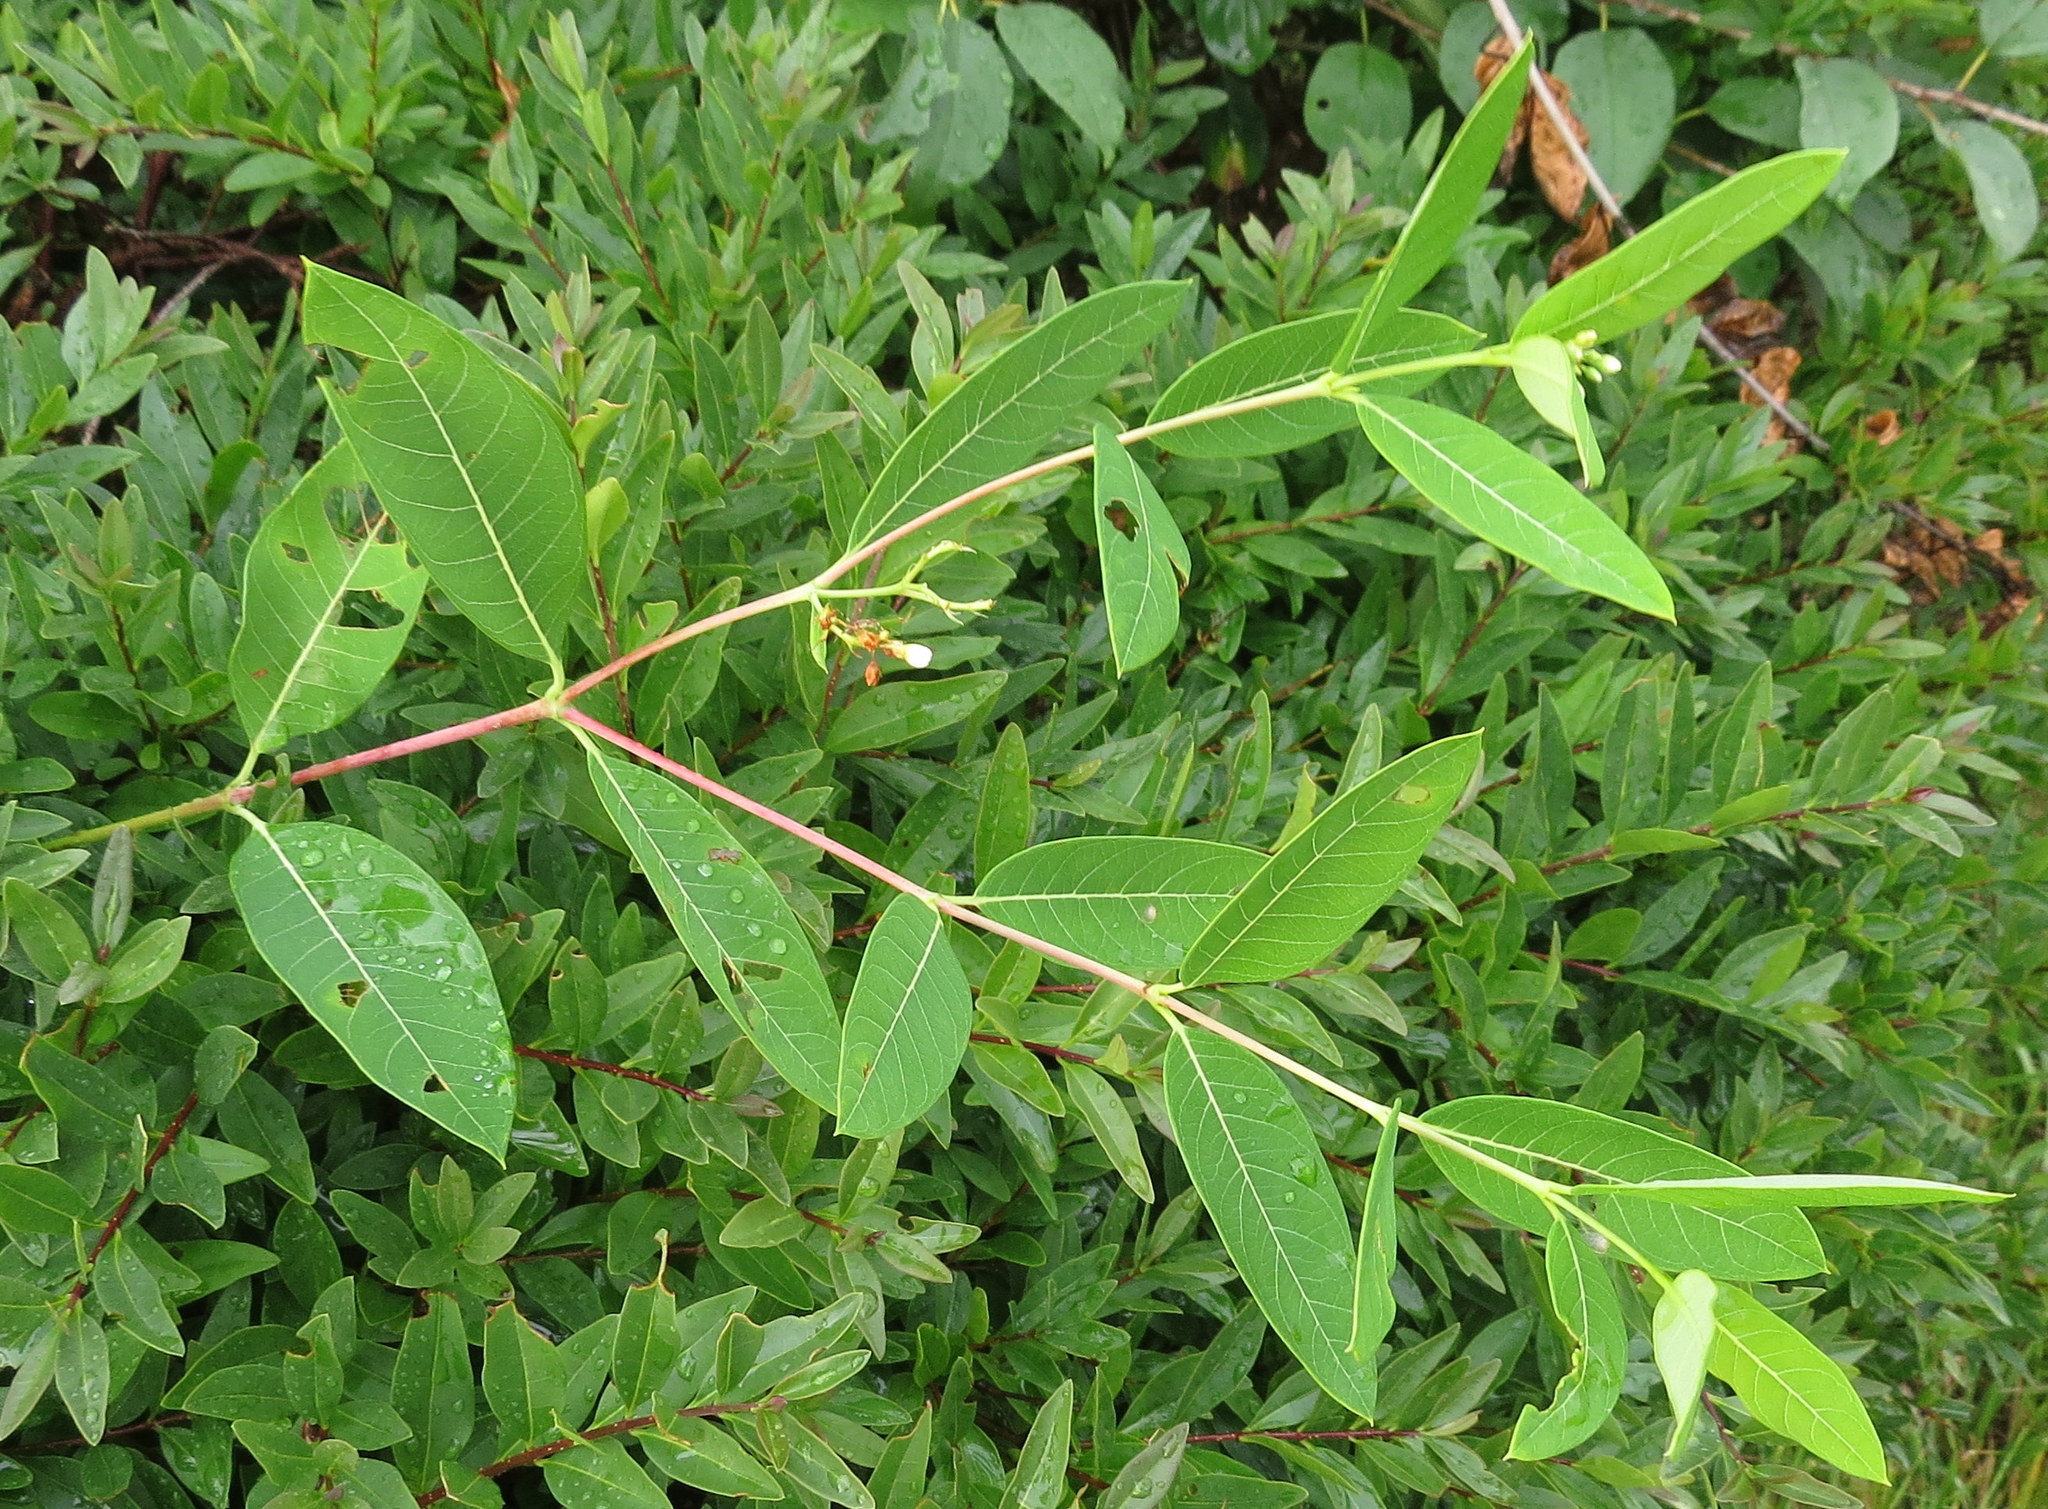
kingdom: Plantae
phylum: Tracheophyta
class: Magnoliopsida
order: Gentianales
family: Apocynaceae
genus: Apocynum
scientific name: Apocynum cannabinum
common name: Hemp dogbane
